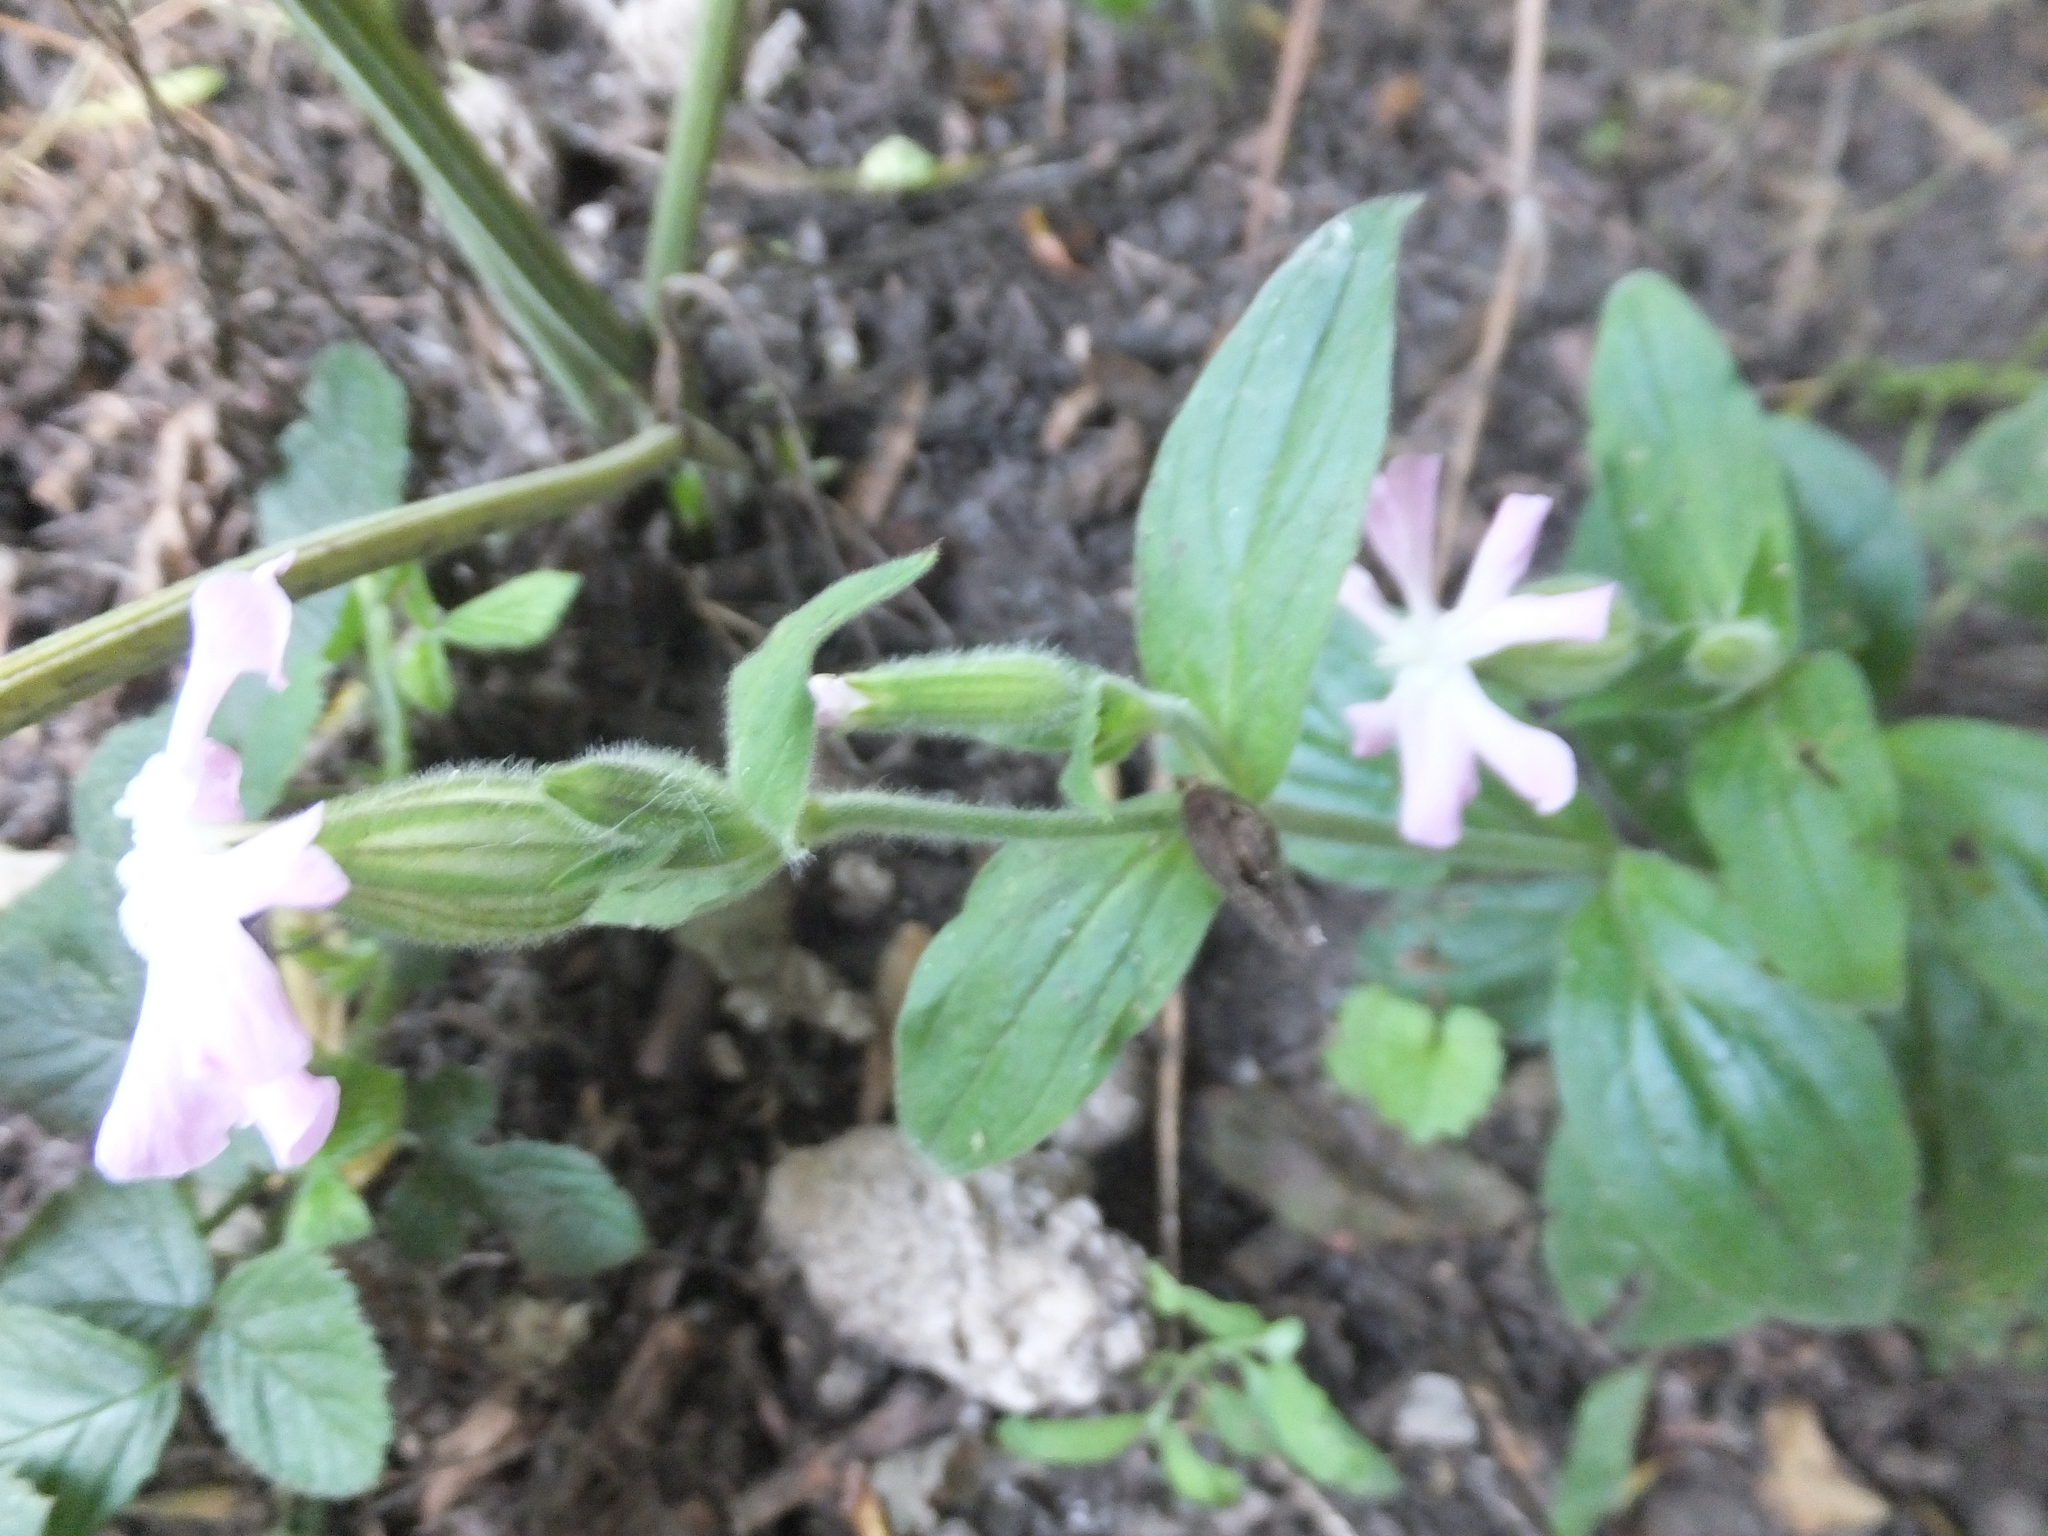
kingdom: Plantae
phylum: Tracheophyta
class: Magnoliopsida
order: Caryophyllales
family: Caryophyllaceae
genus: Silene
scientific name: Silene hampeana
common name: Catchfly
